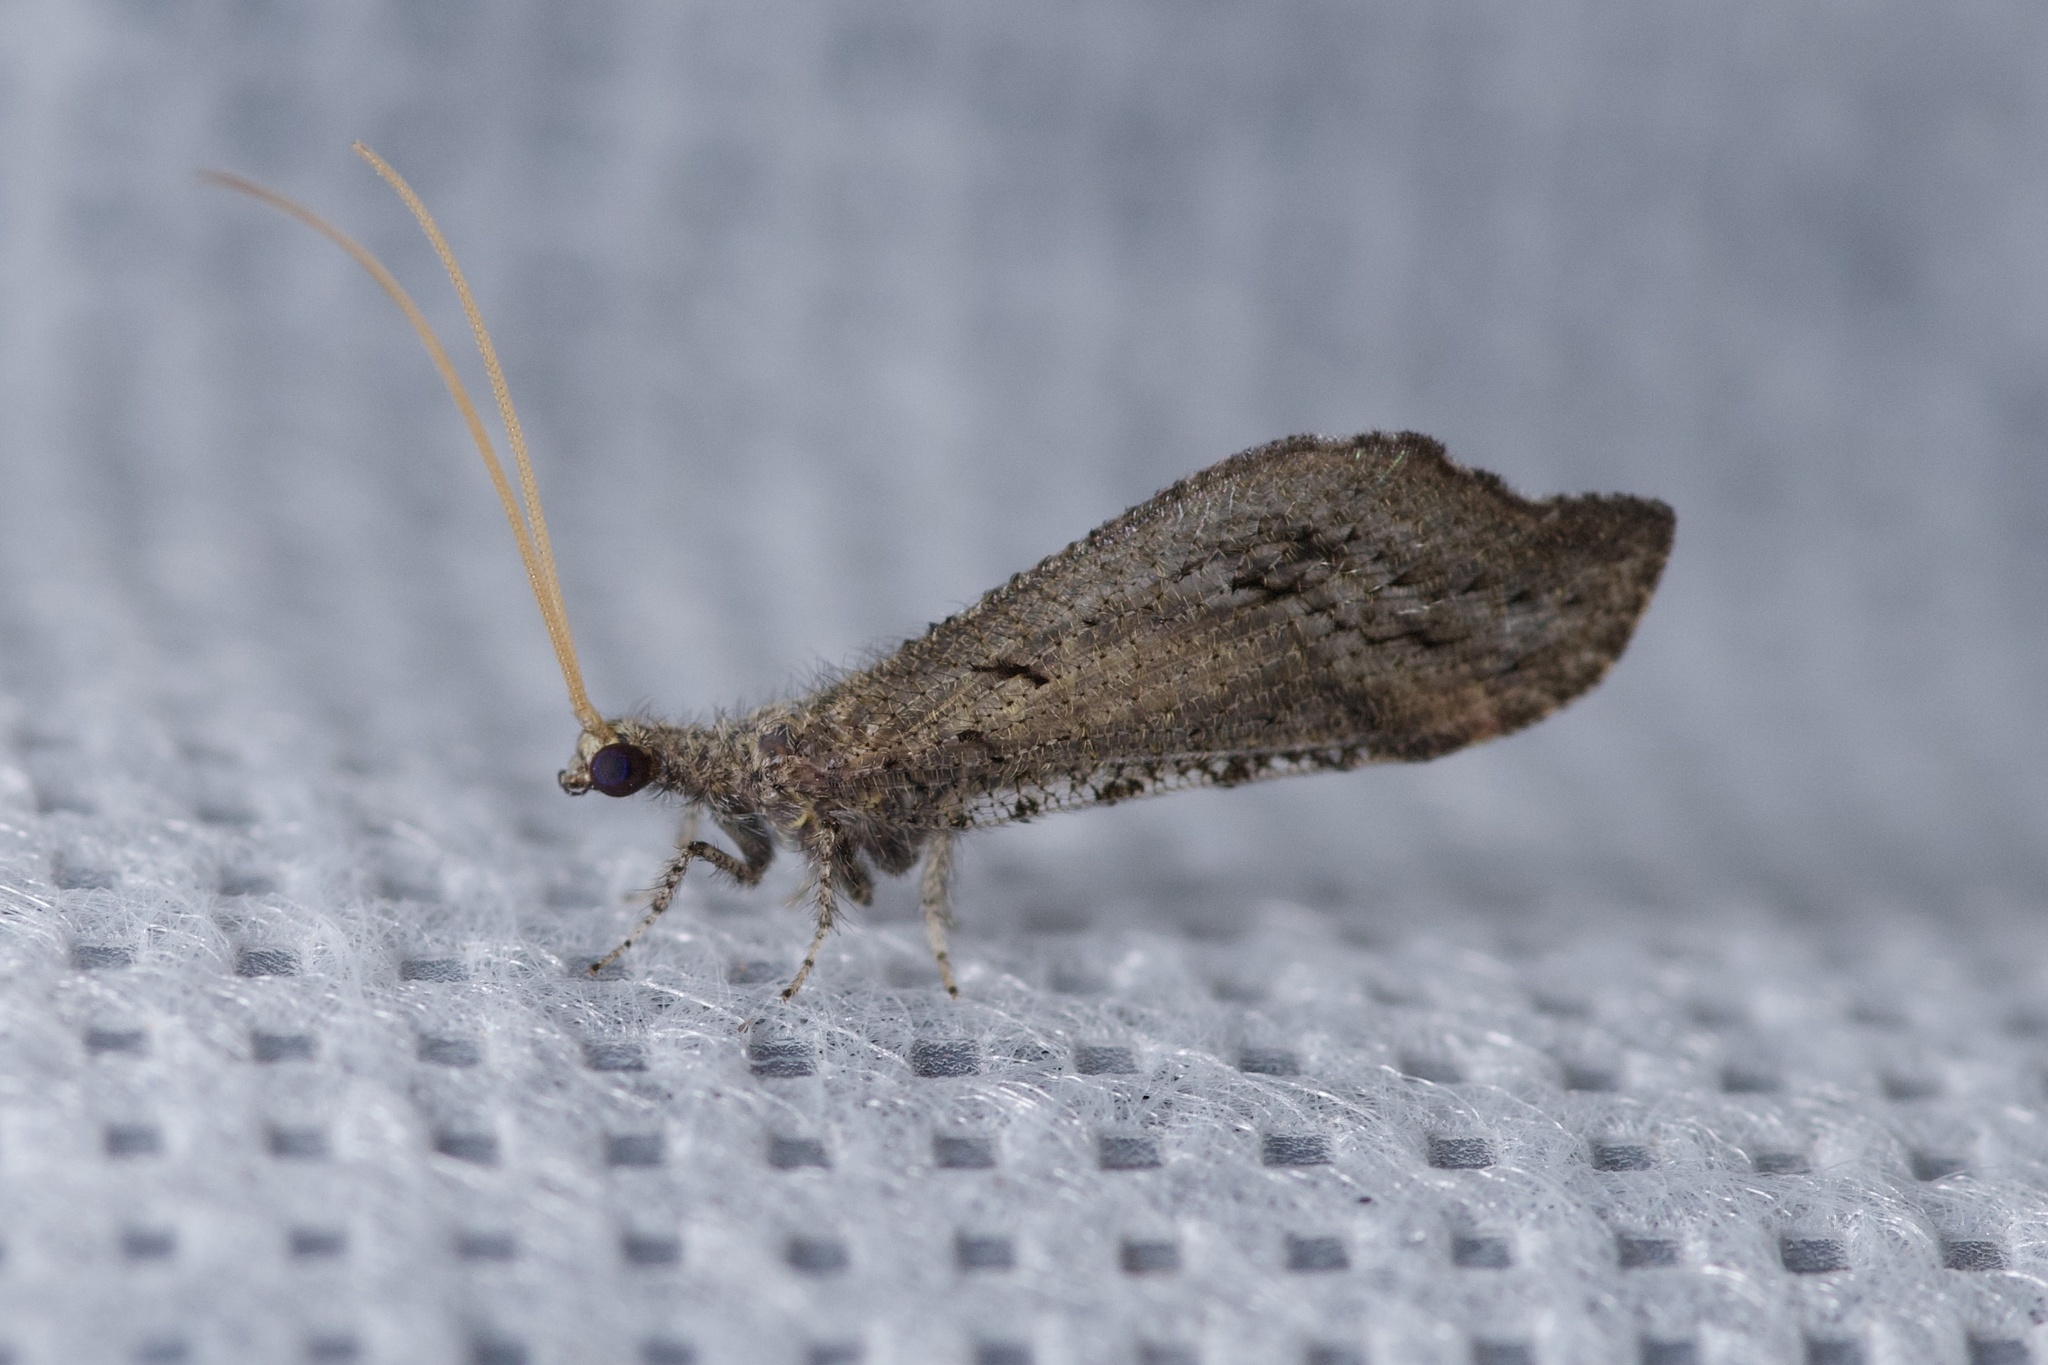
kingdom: Animalia
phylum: Arthropoda
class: Insecta
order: Neuroptera
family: Berothidae
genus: Lomamyia
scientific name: Lomamyia squamosa
